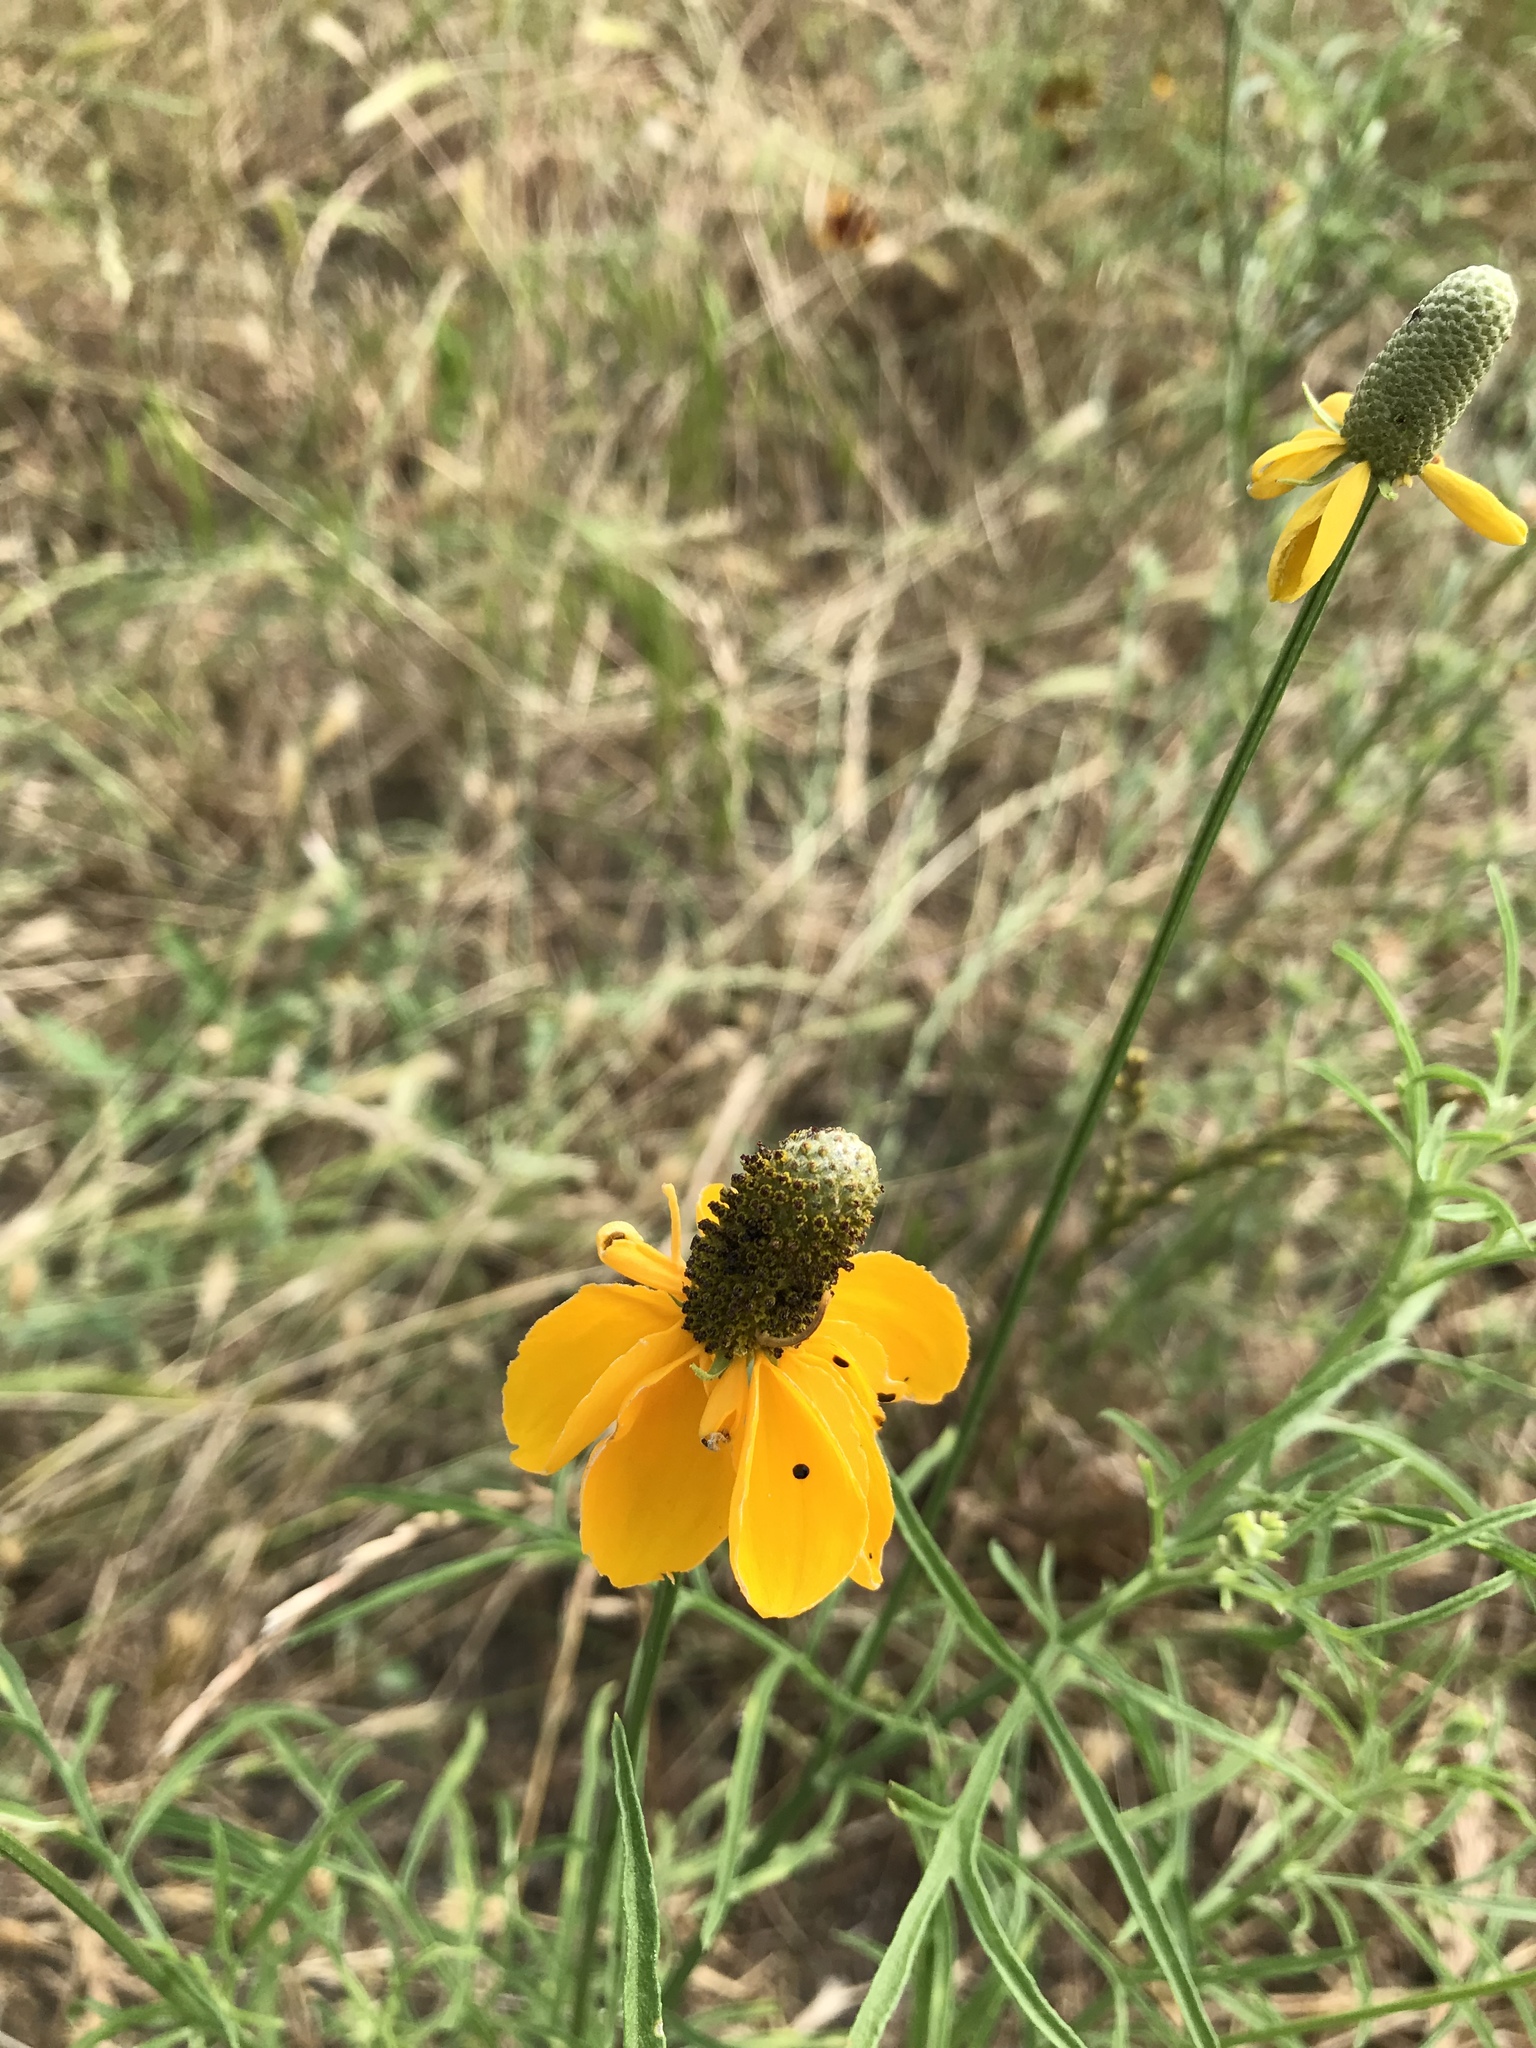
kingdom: Plantae
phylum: Tracheophyta
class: Magnoliopsida
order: Asterales
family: Asteraceae
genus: Ratibida
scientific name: Ratibida columnifera
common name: Prairie coneflower
